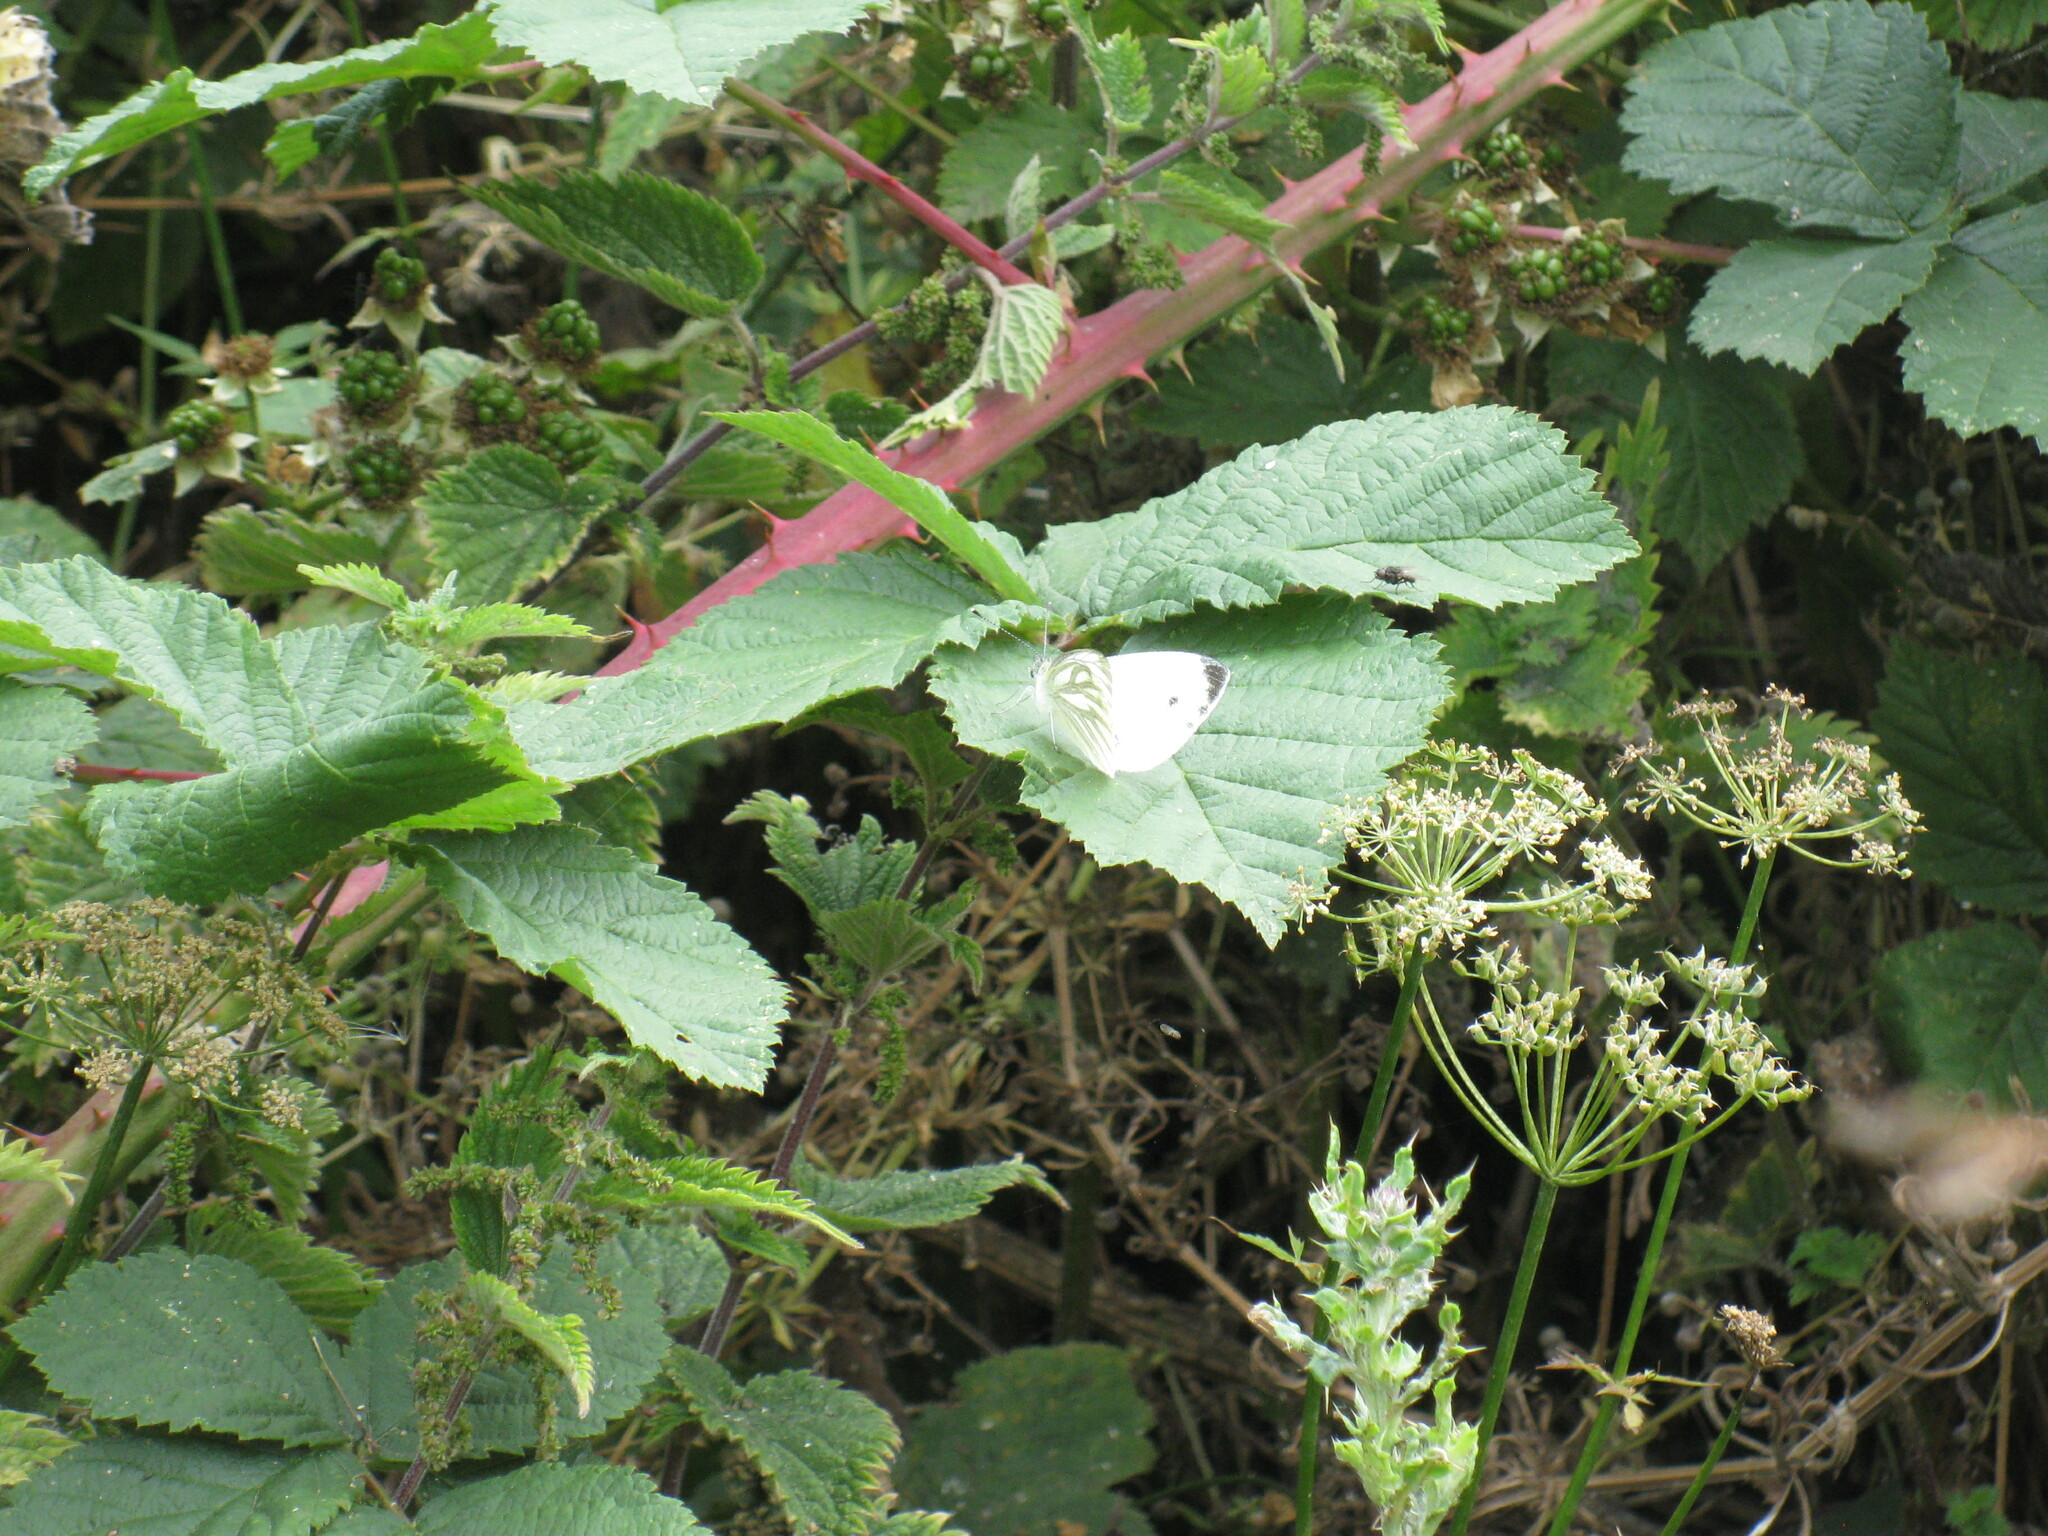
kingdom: Animalia
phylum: Arthropoda
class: Insecta
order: Lepidoptera
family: Pieridae
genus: Pieris
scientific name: Pieris napi
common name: Green-veined white
